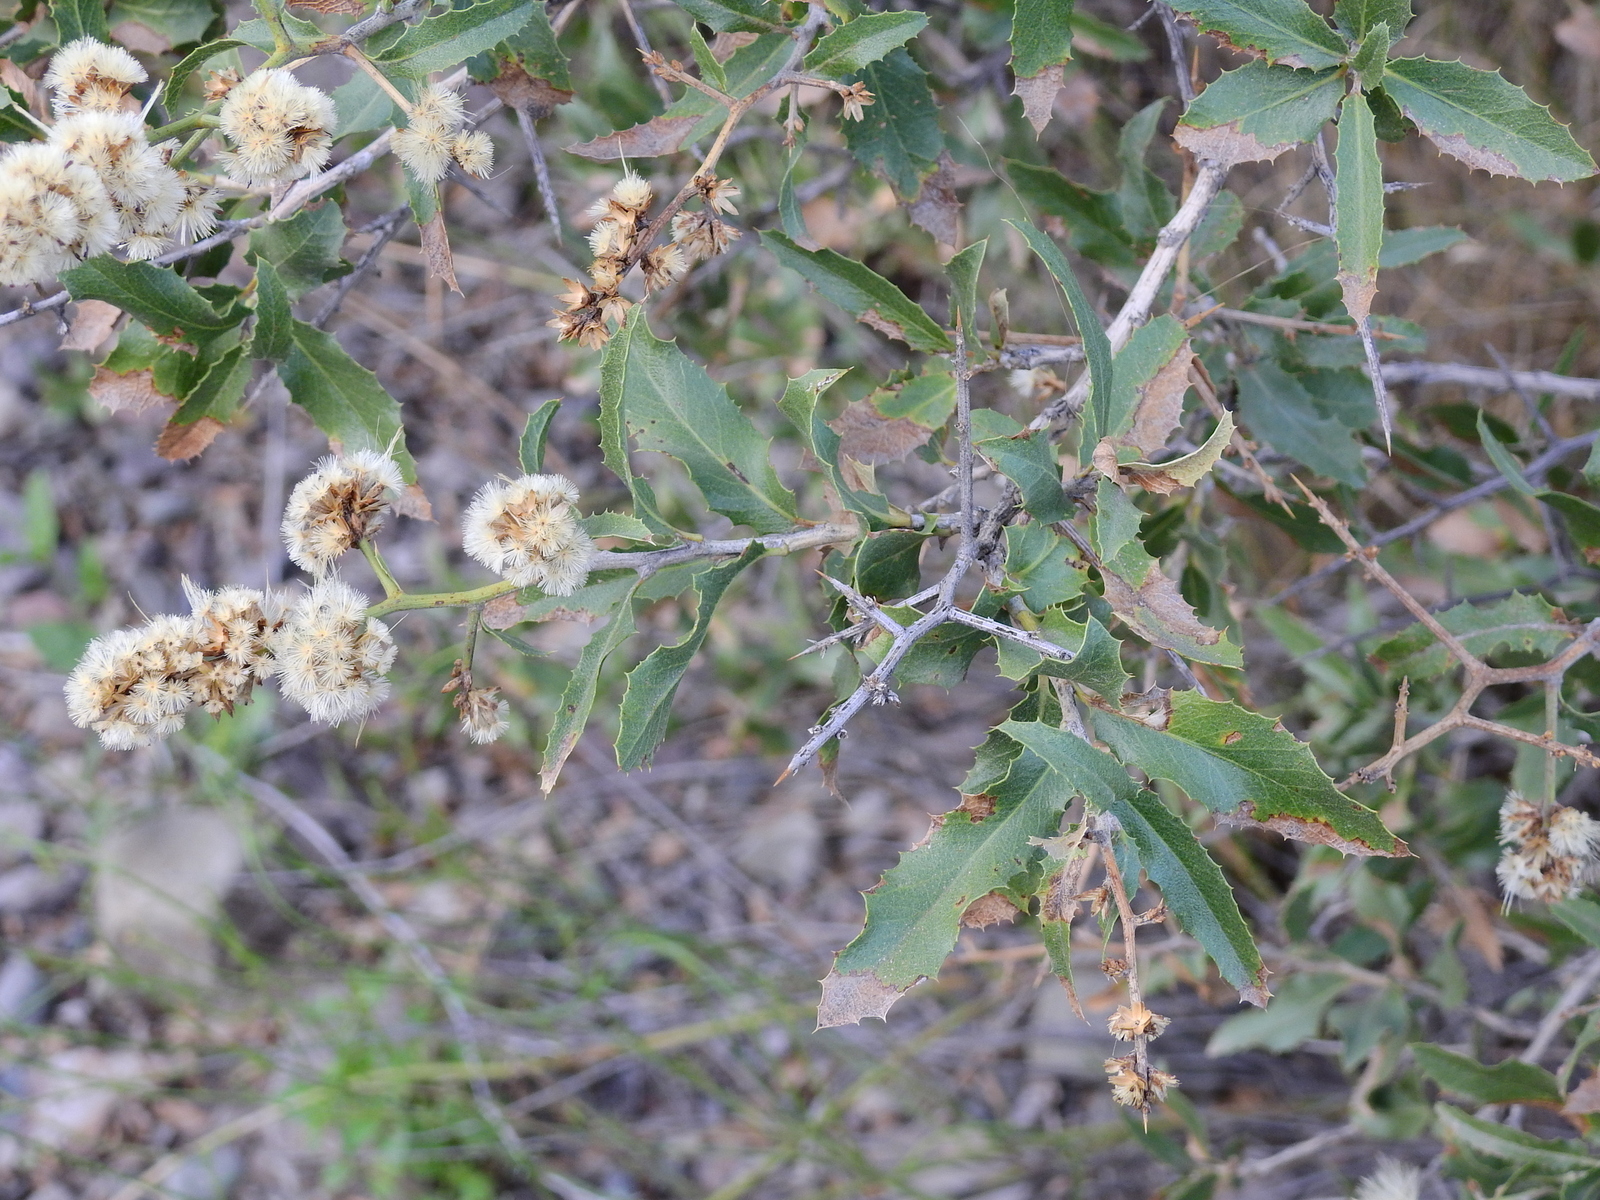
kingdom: Plantae
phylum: Tracheophyta
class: Magnoliopsida
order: Asterales
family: Asteraceae
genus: Proustia
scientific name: Proustia cuneifolia
